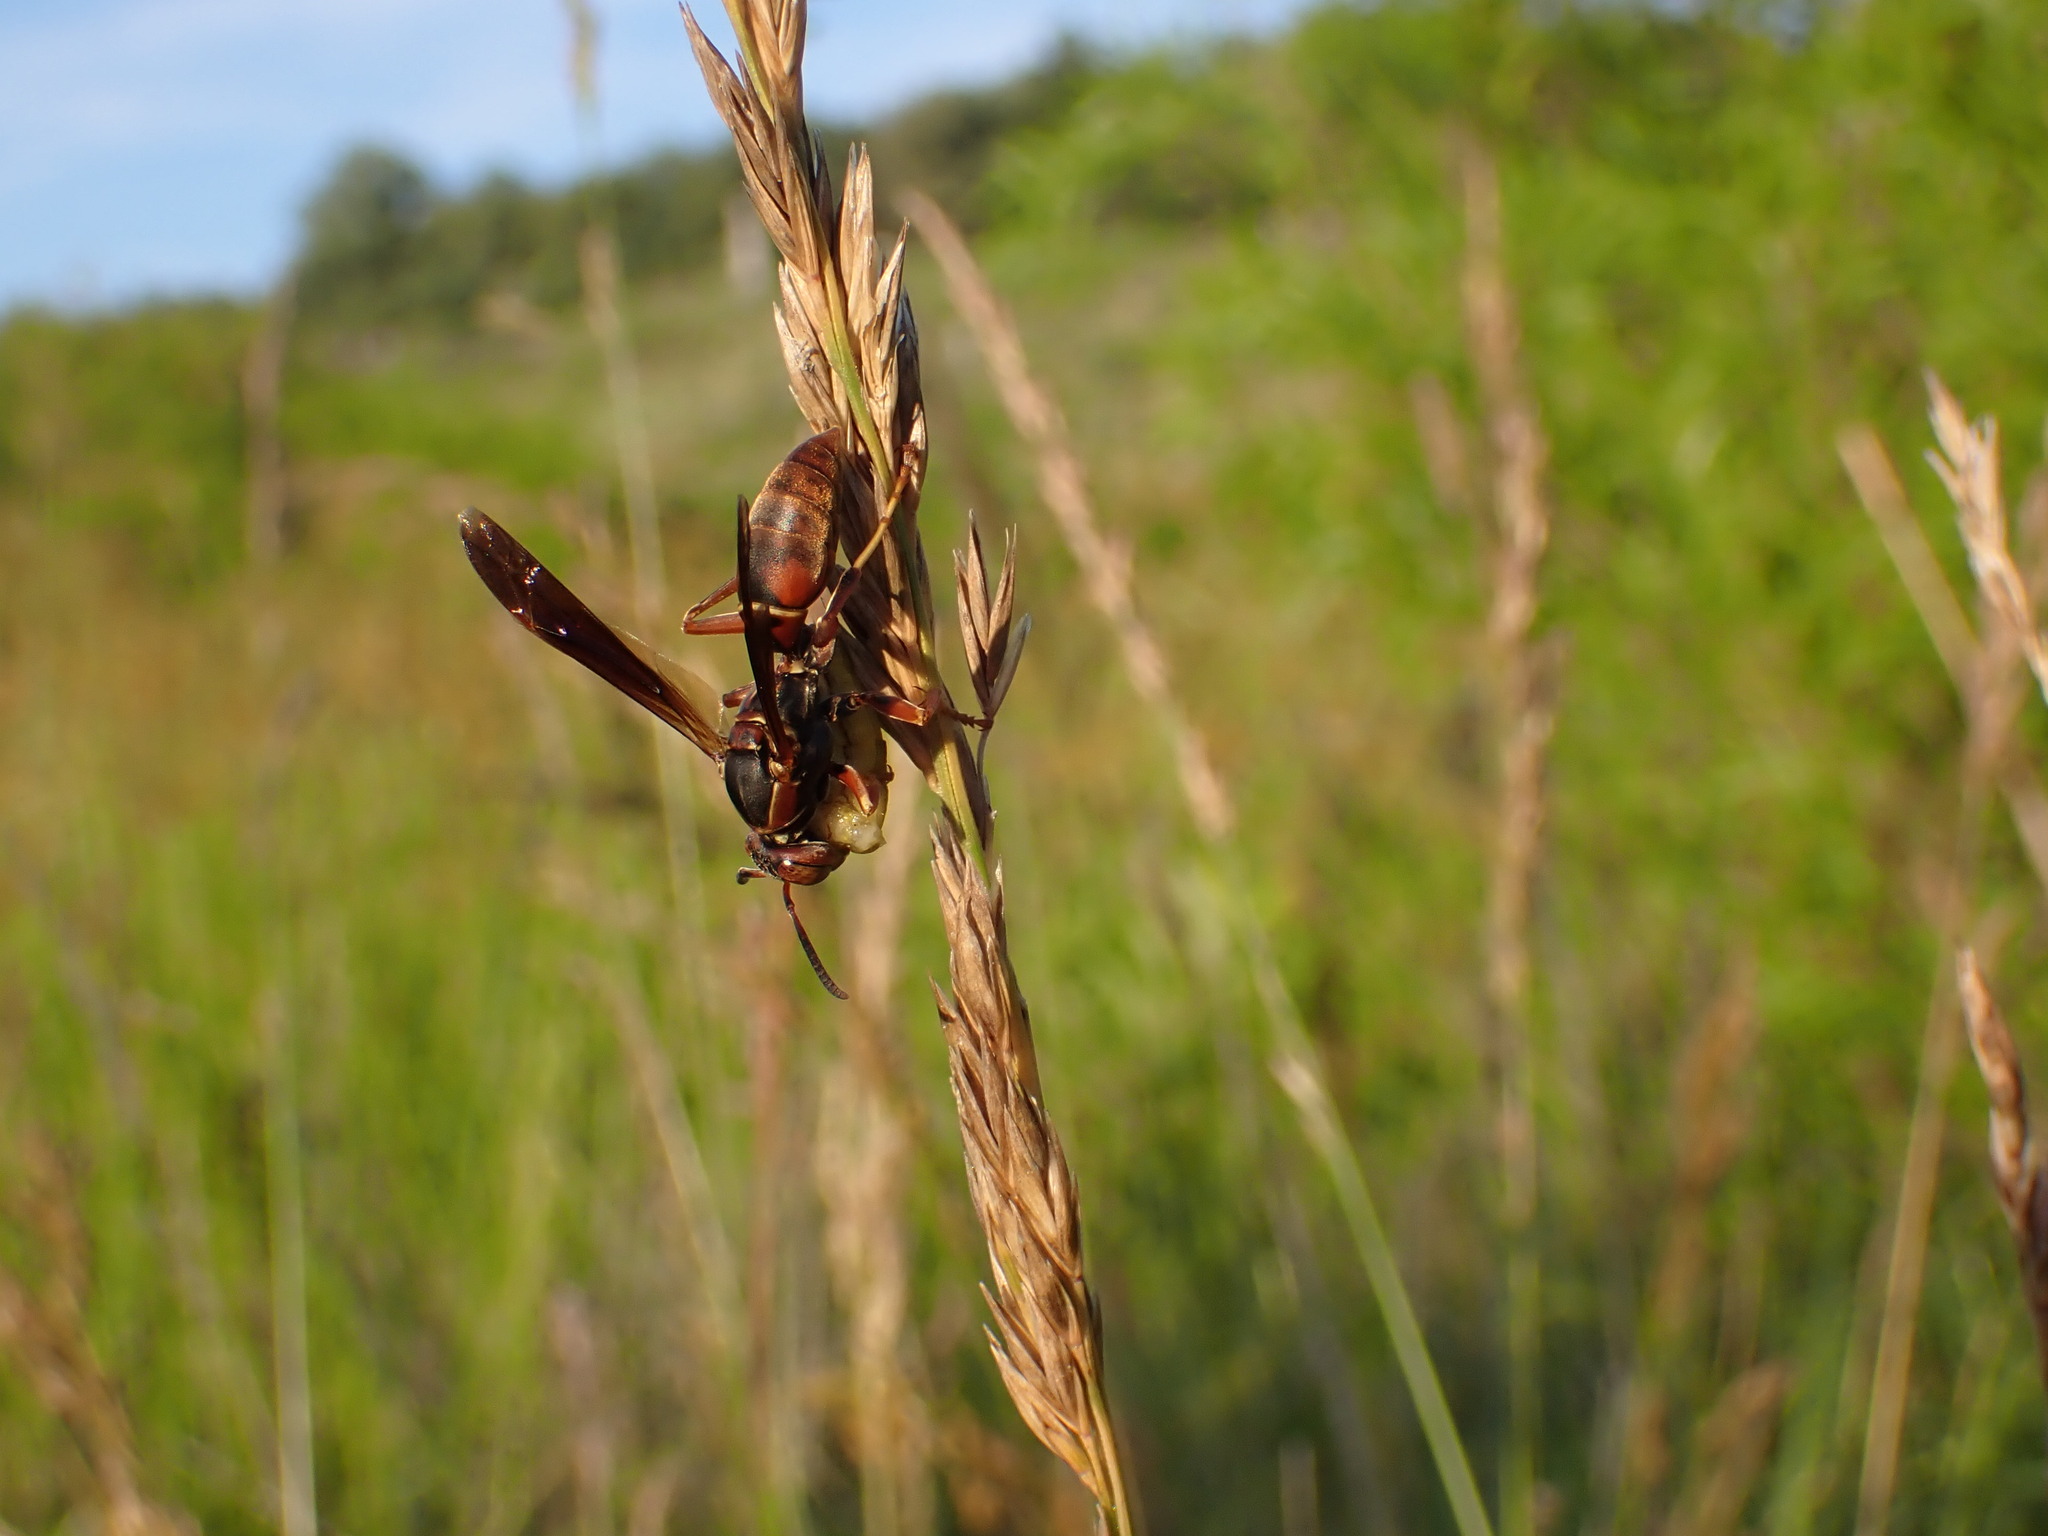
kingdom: Animalia
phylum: Arthropoda
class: Insecta
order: Hymenoptera
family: Vespidae
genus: Fuscopolistes
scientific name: Fuscopolistes
